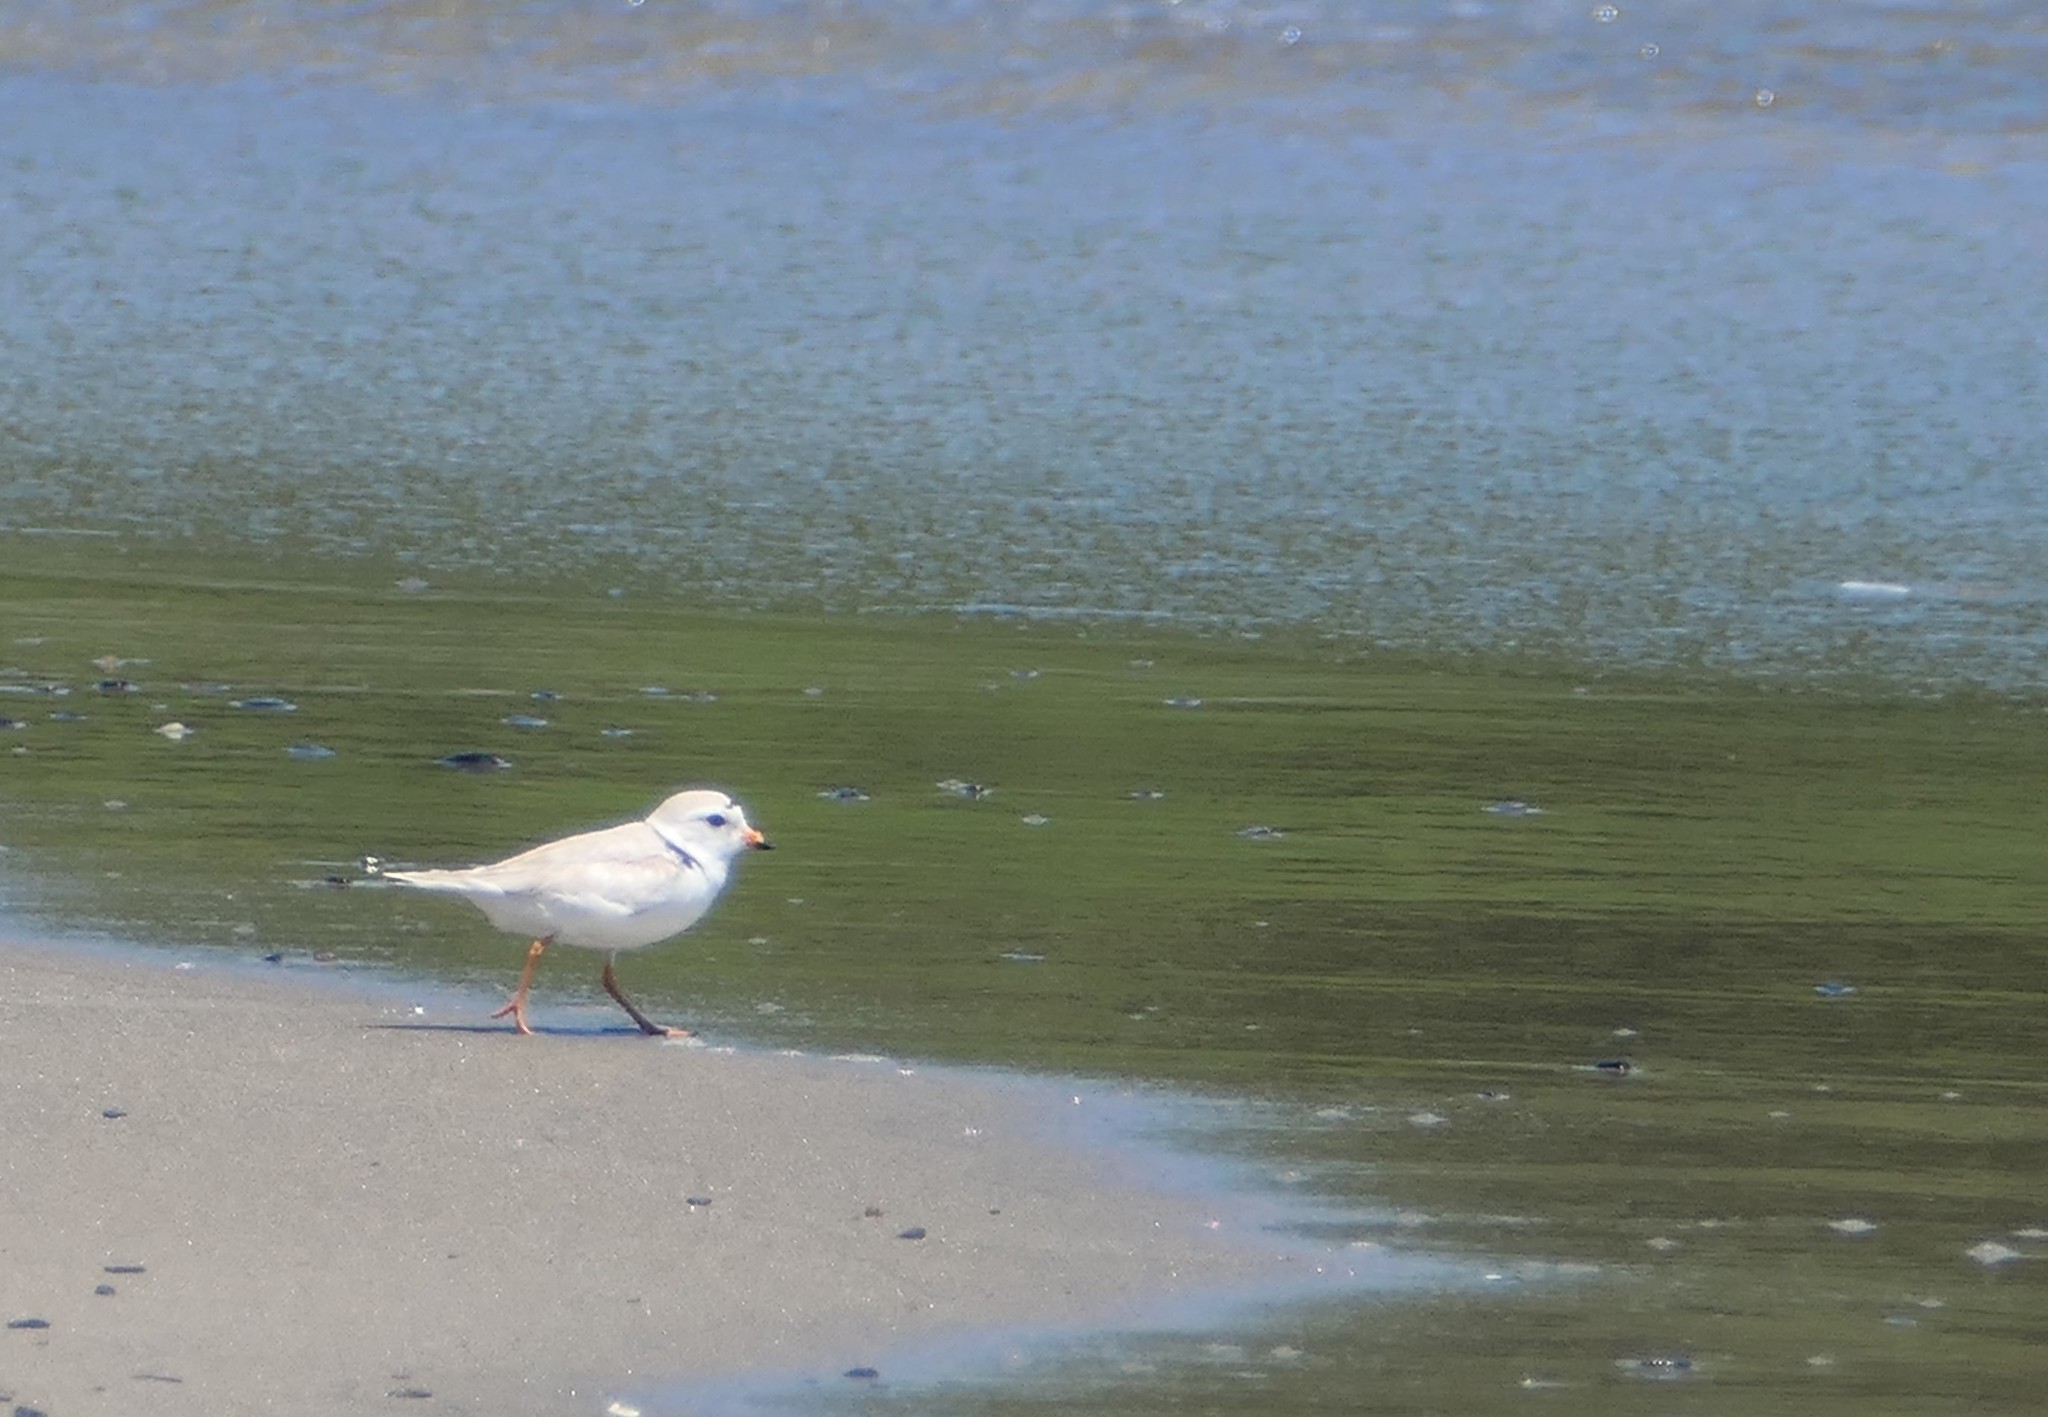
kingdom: Animalia
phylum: Chordata
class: Aves
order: Charadriiformes
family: Charadriidae
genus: Charadrius
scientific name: Charadrius melodus
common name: Piping plover
